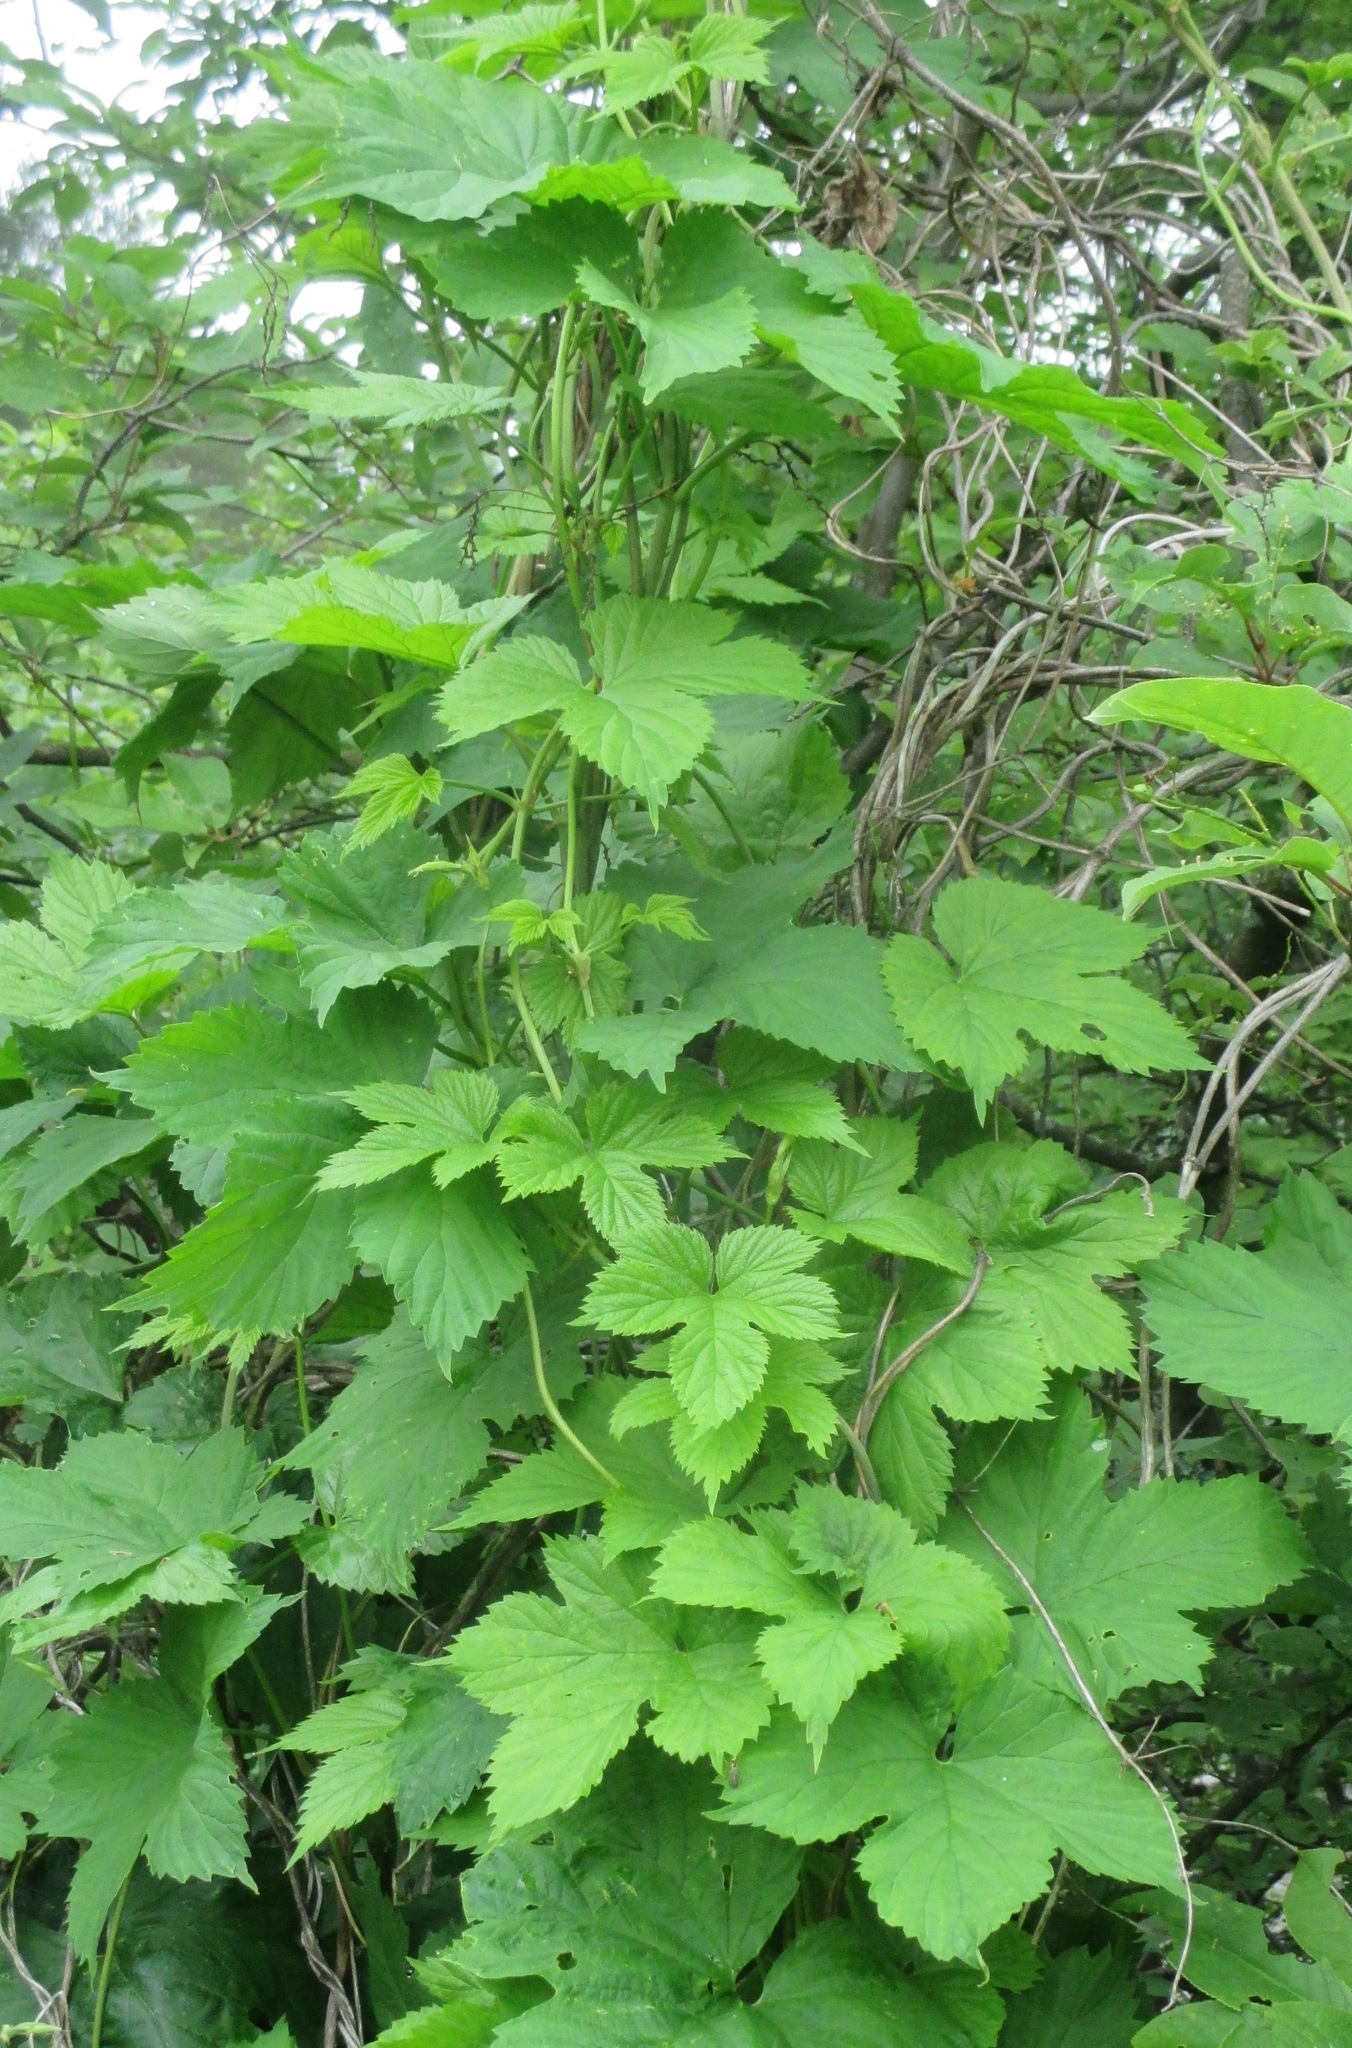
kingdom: Plantae
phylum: Tracheophyta
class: Magnoliopsida
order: Rosales
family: Cannabaceae
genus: Humulus
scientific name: Humulus lupulus
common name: Hop
